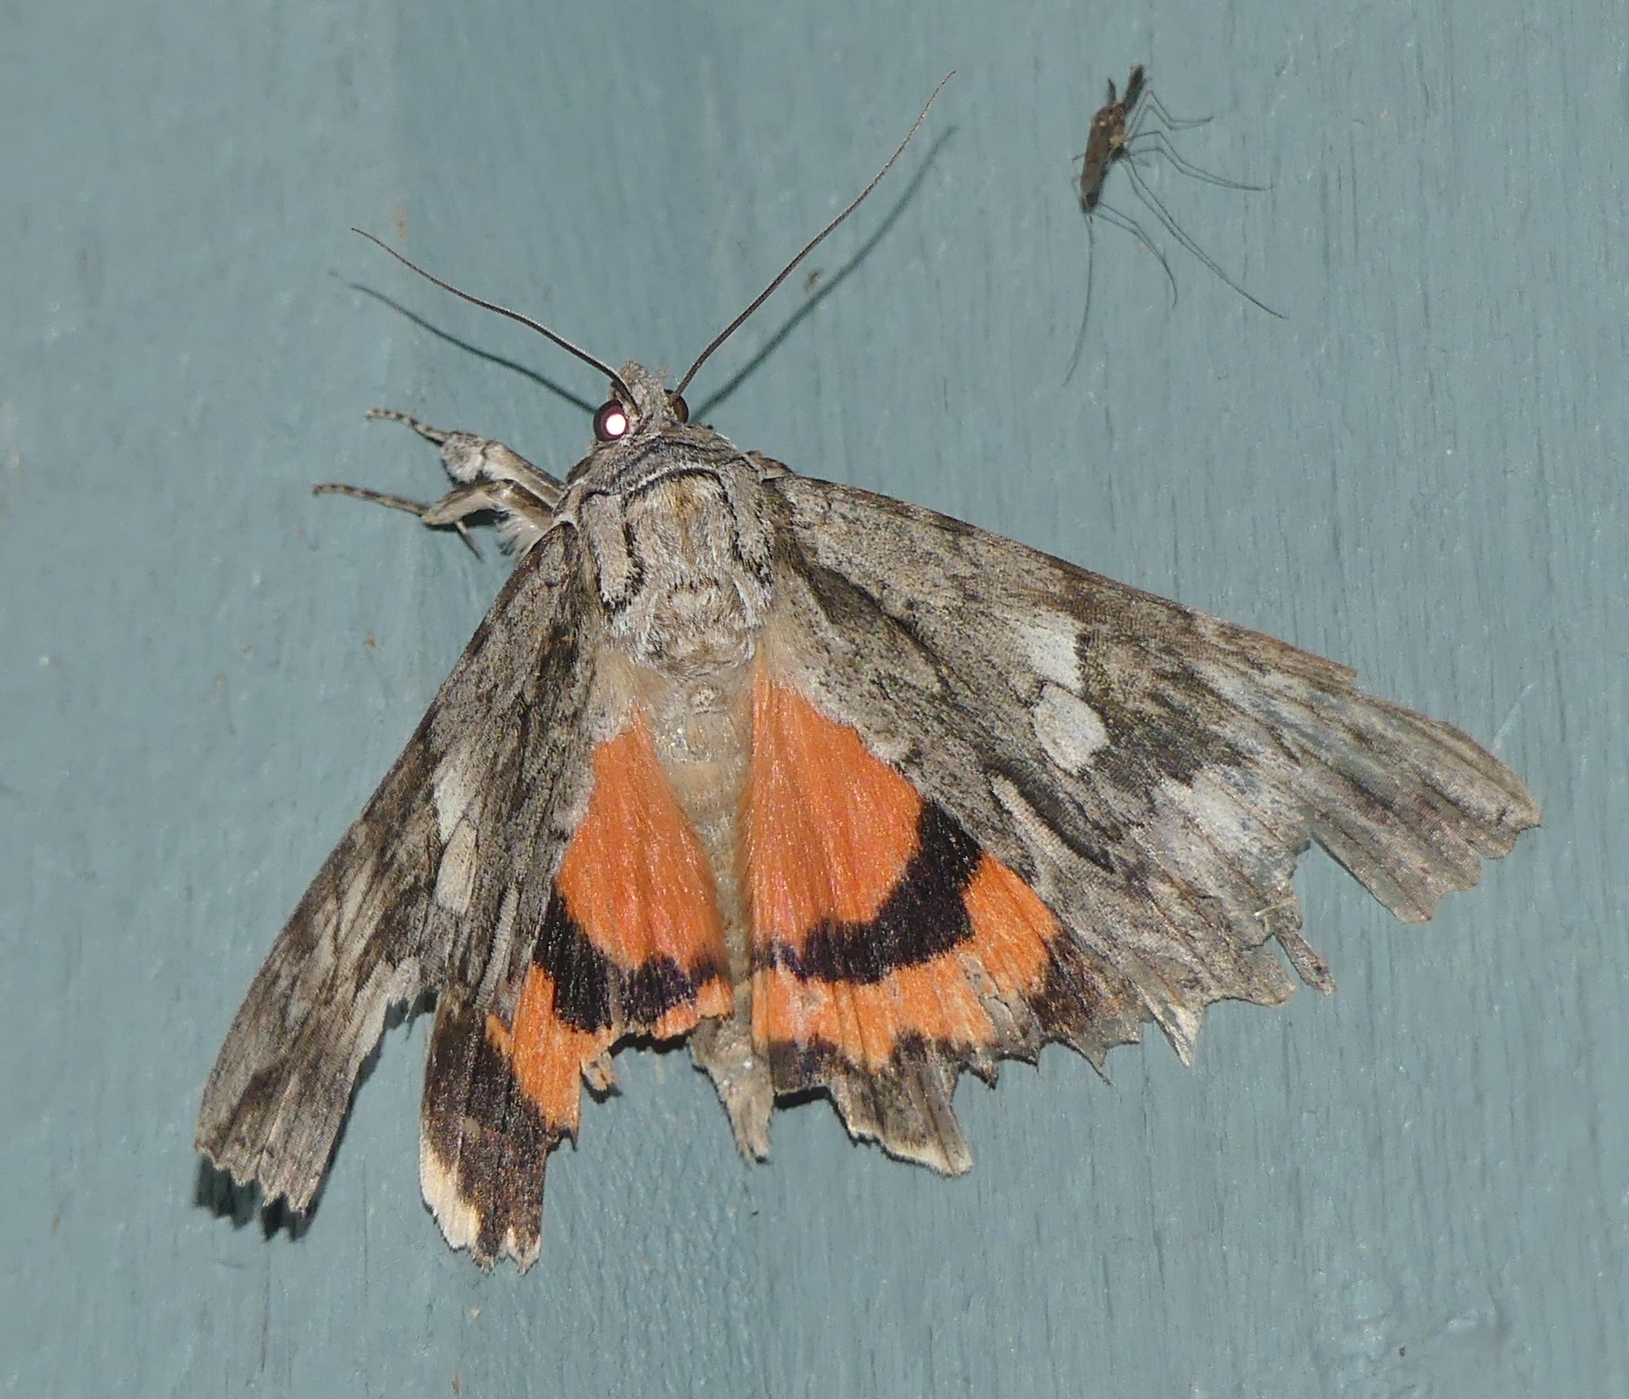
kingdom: Animalia
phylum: Arthropoda
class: Insecta
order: Lepidoptera
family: Erebidae
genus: Catocala
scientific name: Catocala parta
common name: Mother underwing
